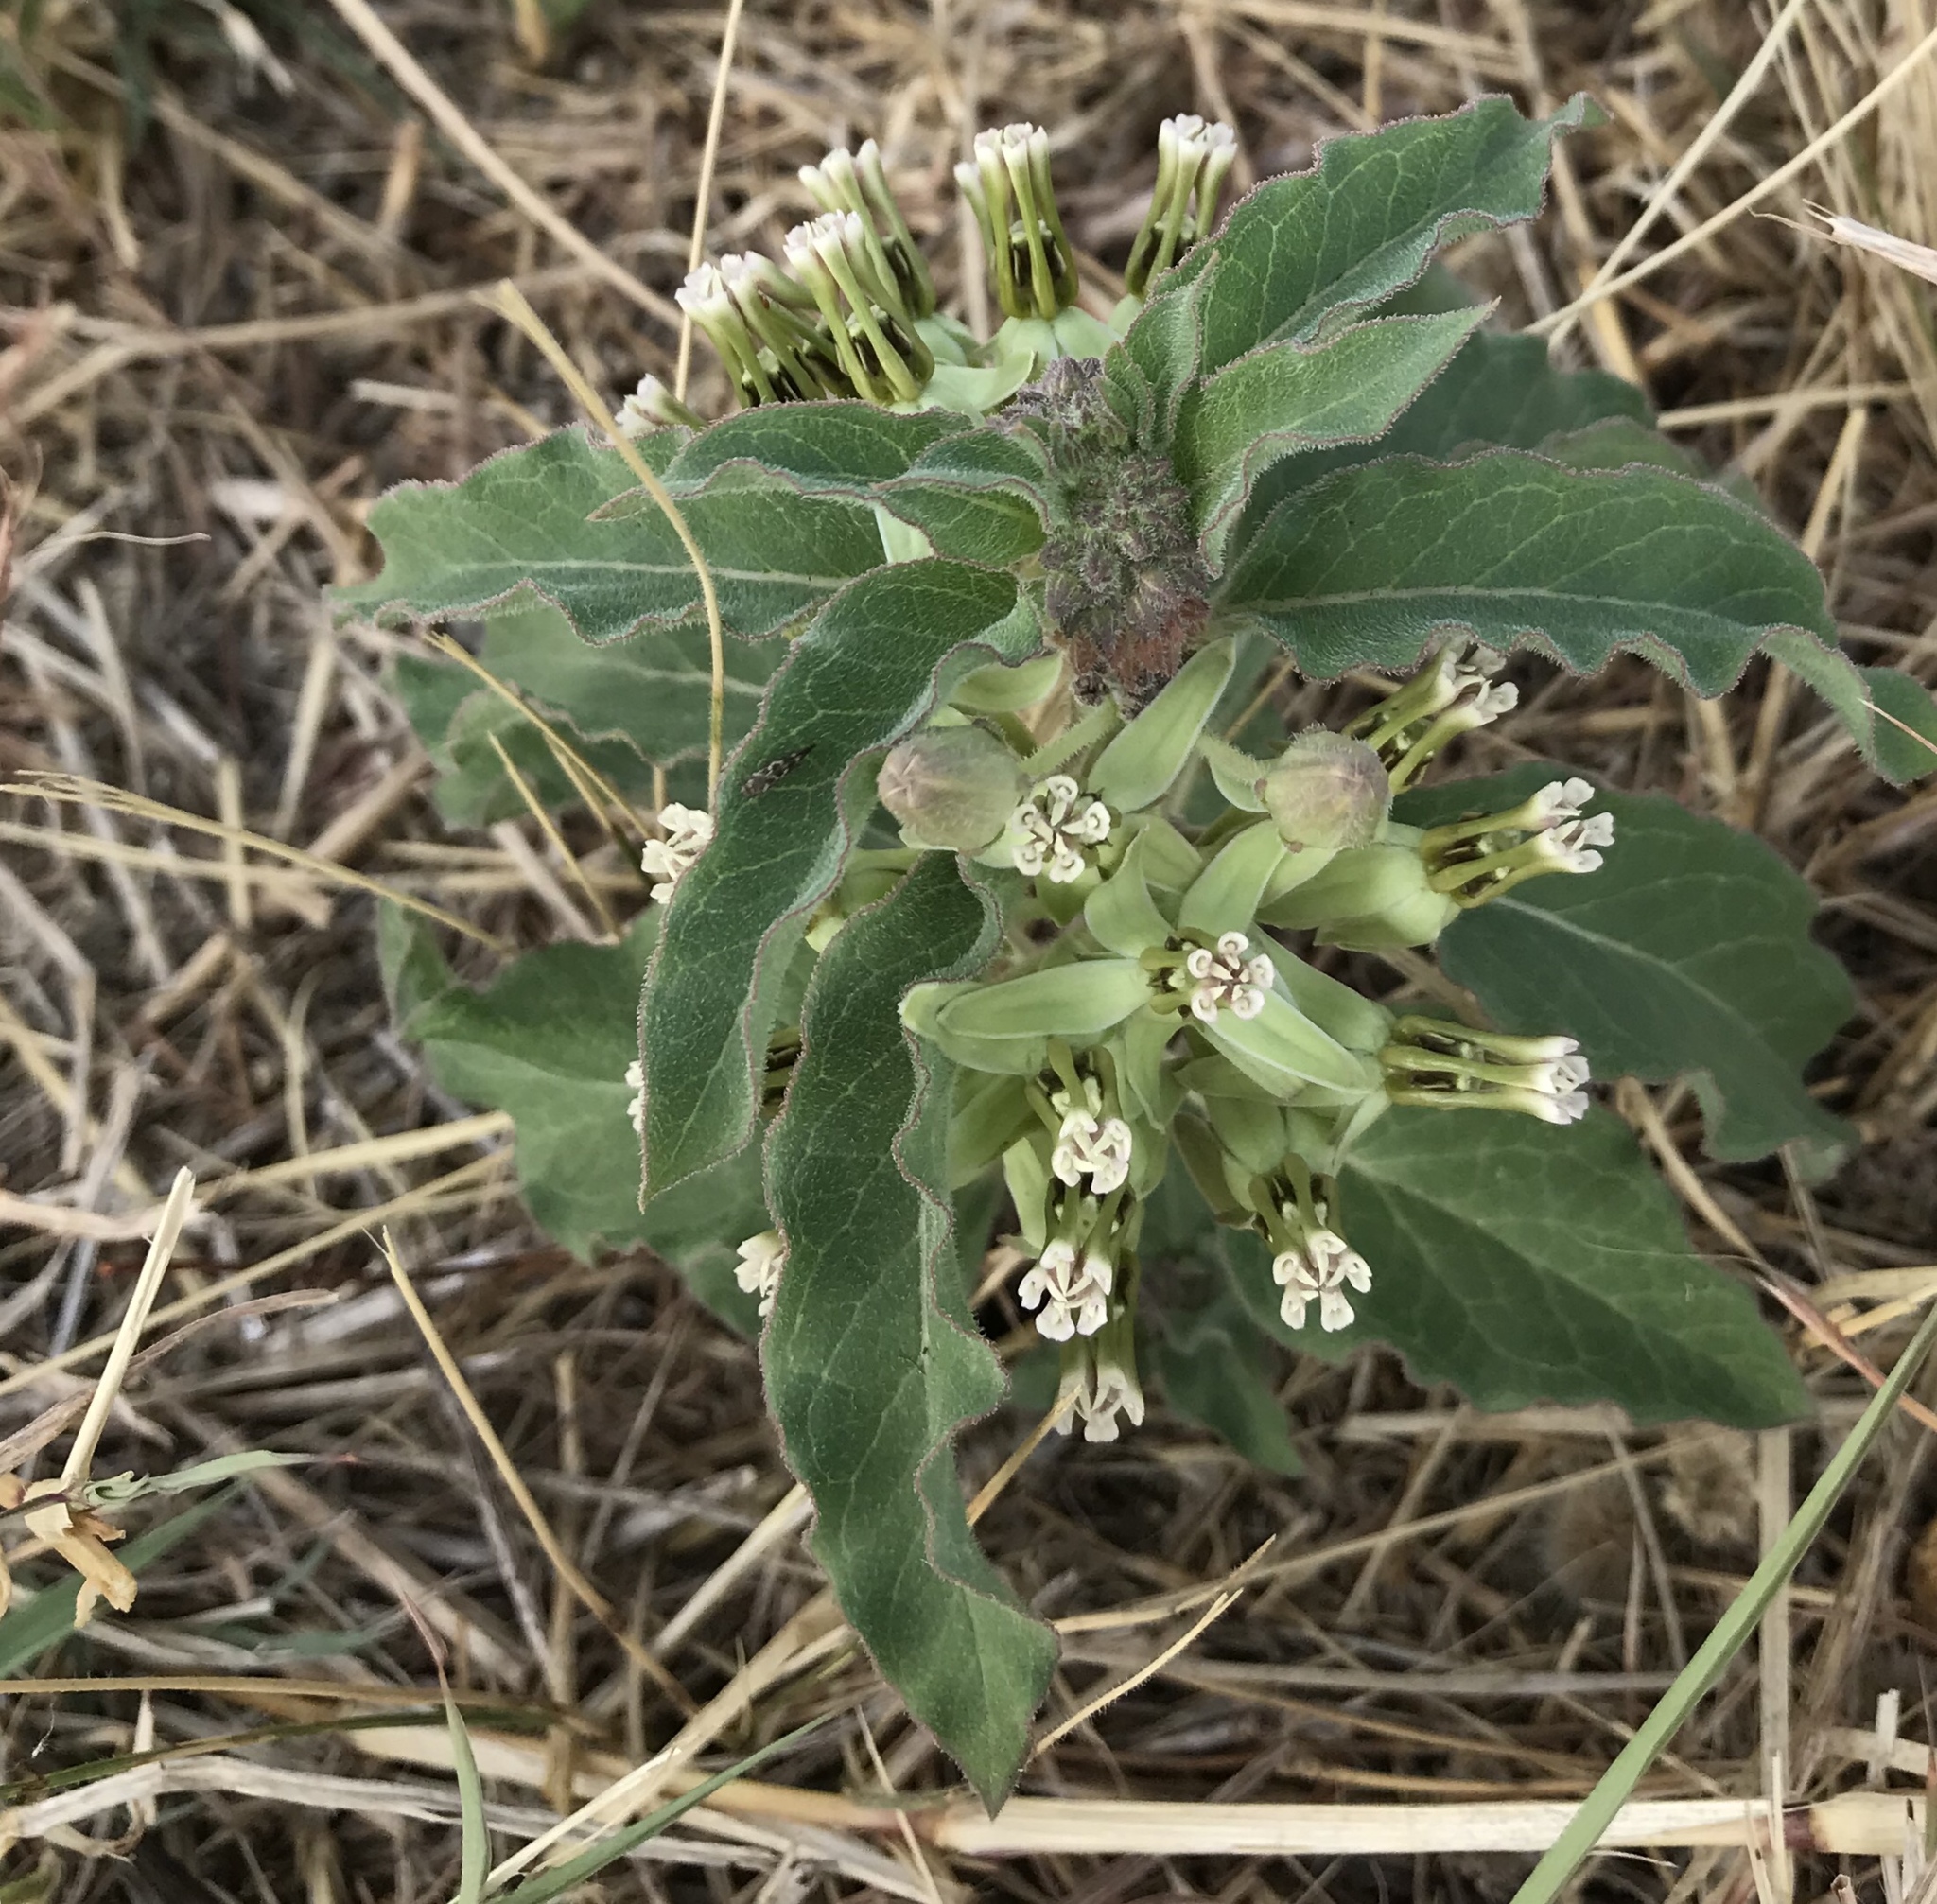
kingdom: Plantae
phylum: Tracheophyta
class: Magnoliopsida
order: Gentianales
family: Apocynaceae
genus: Asclepias
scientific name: Asclepias oenotheroides
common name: Zizotes milkweed
